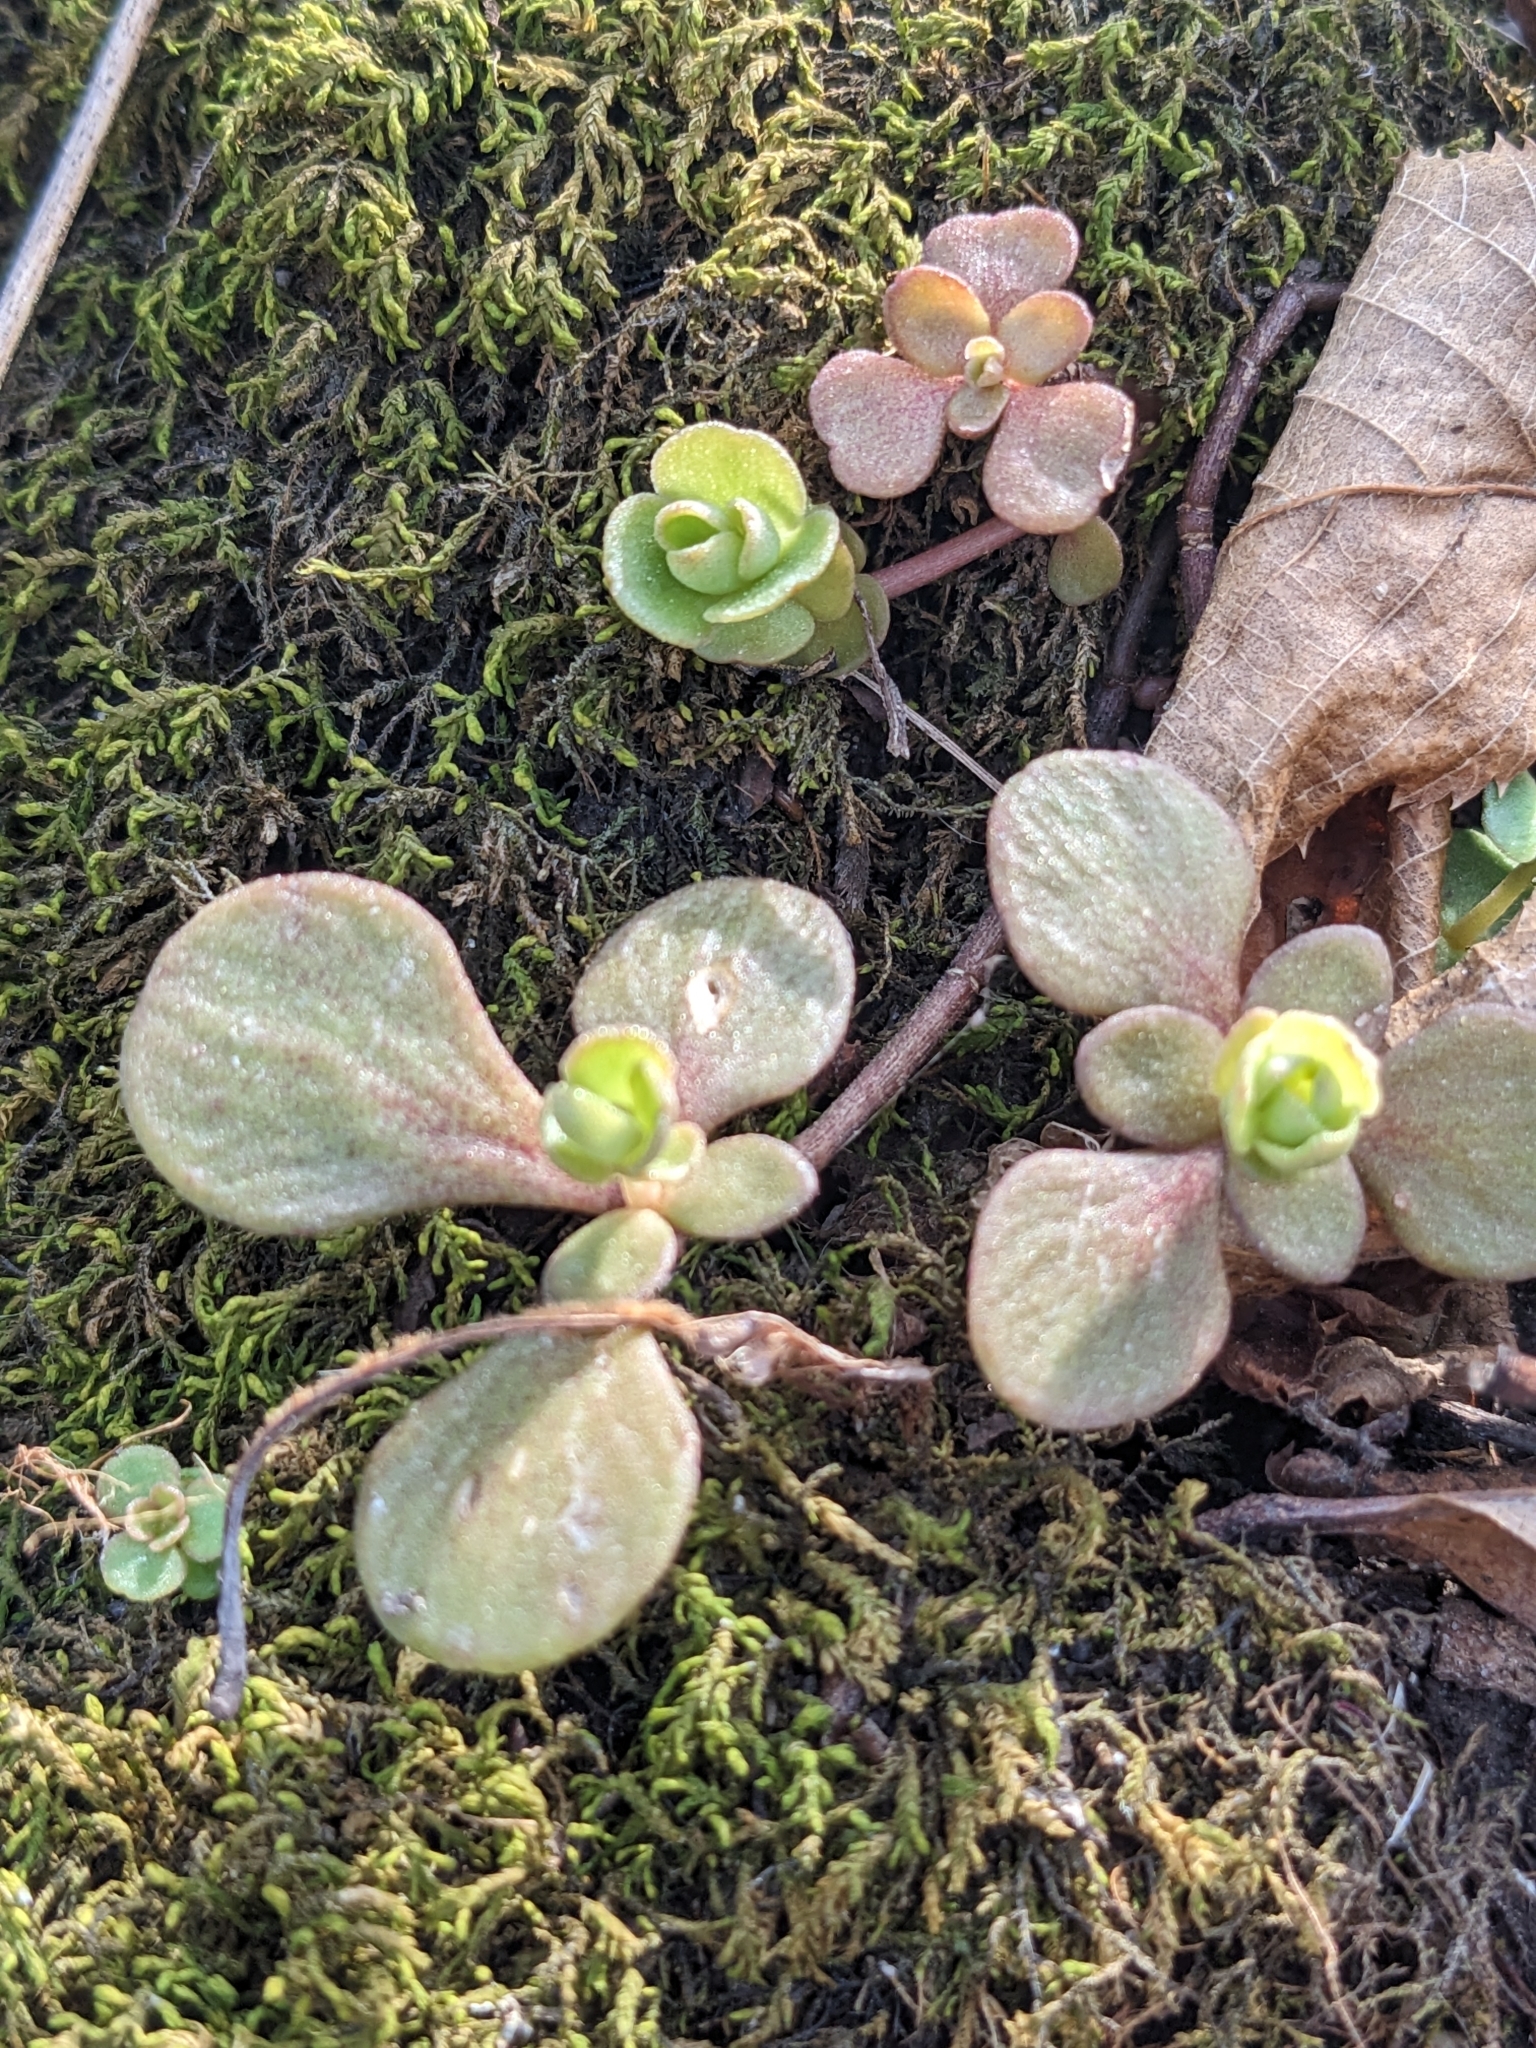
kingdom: Plantae
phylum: Tracheophyta
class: Magnoliopsida
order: Saxifragales
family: Crassulaceae
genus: Sedum
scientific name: Sedum ternatum
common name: Wild stonecrop
